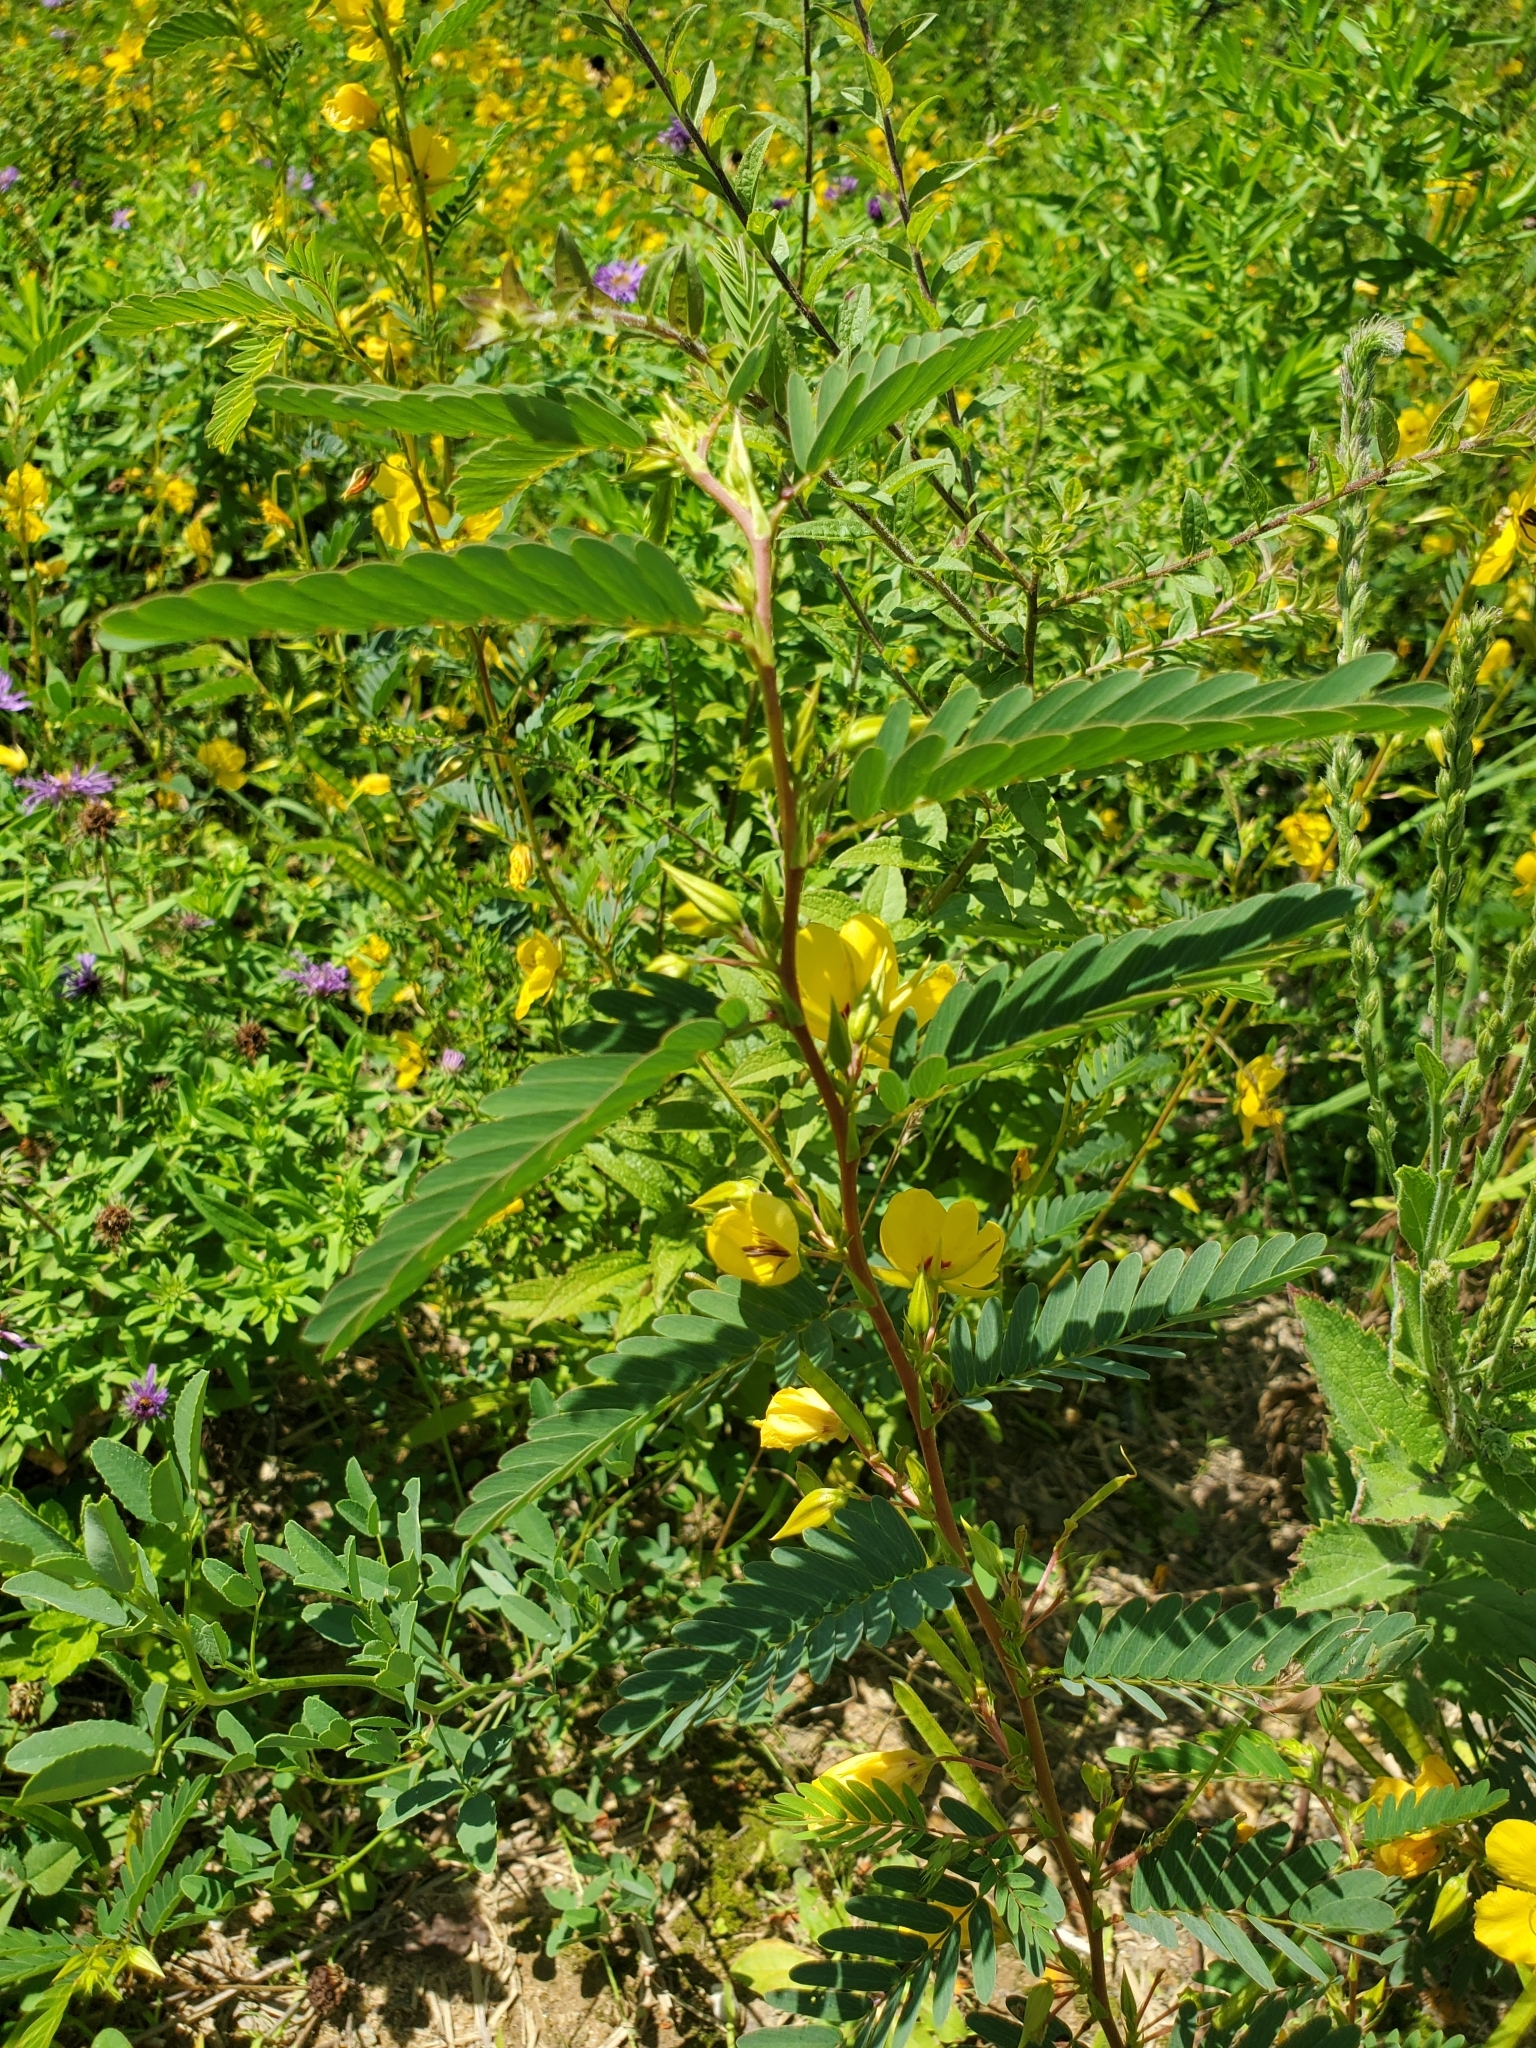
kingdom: Plantae
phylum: Tracheophyta
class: Magnoliopsida
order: Fabales
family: Fabaceae
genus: Chamaecrista
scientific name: Chamaecrista fasciculata
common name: Golden cassia
